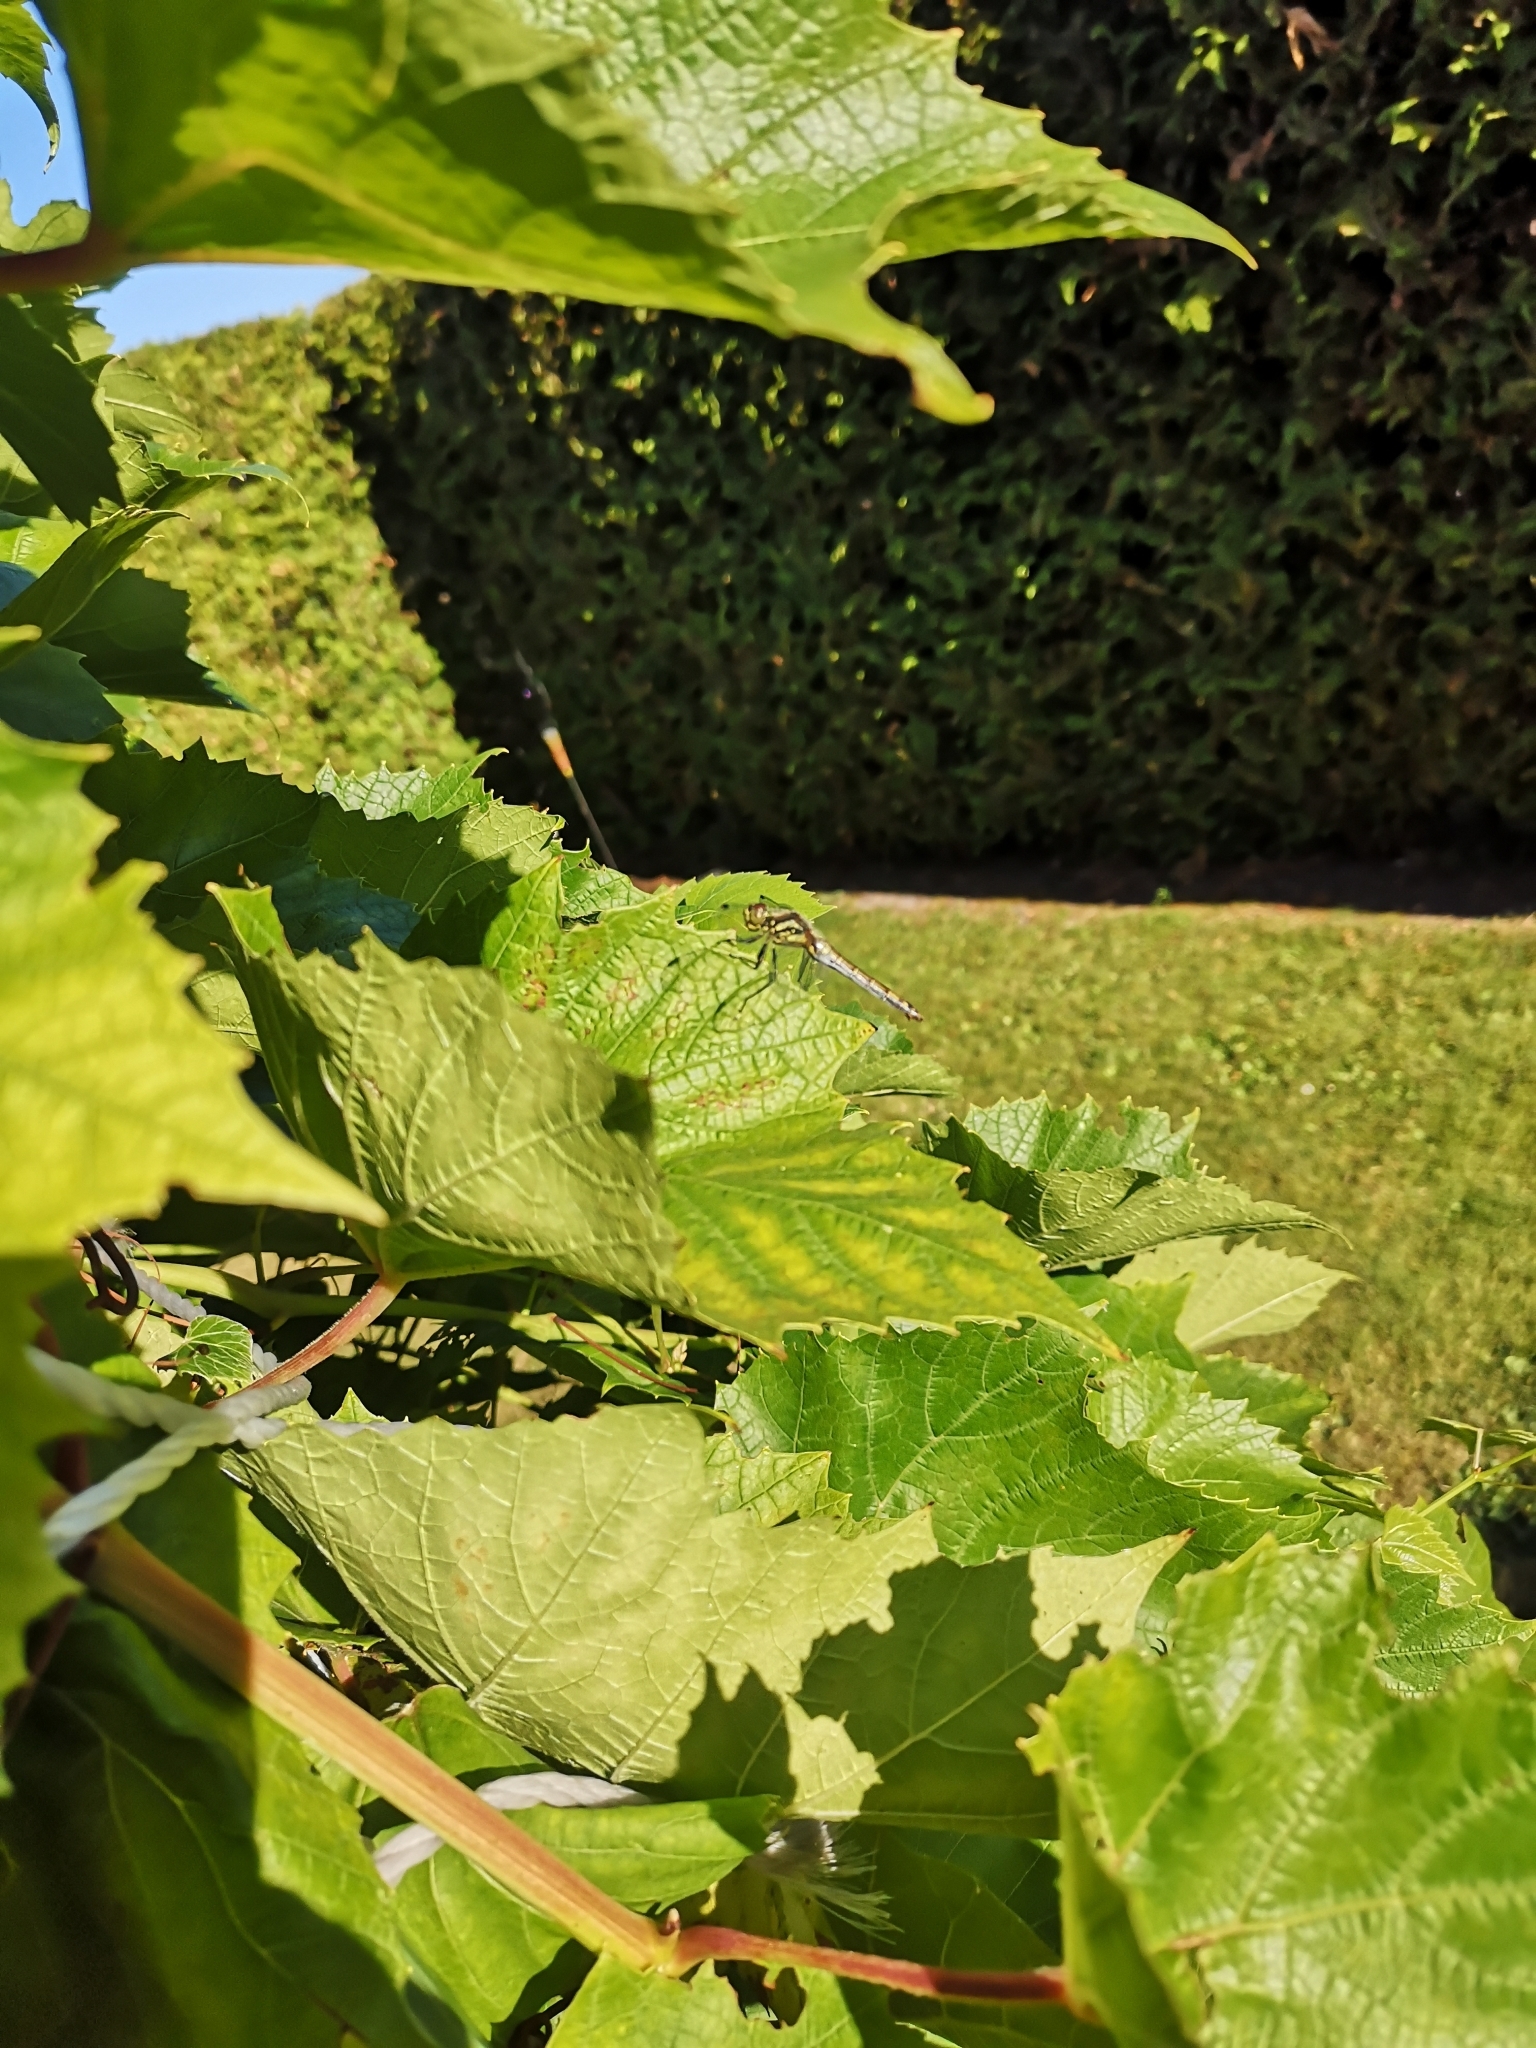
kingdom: Animalia
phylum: Arthropoda
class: Insecta
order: Odonata
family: Libellulidae
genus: Sympetrum
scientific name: Sympetrum danae
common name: Black darter
